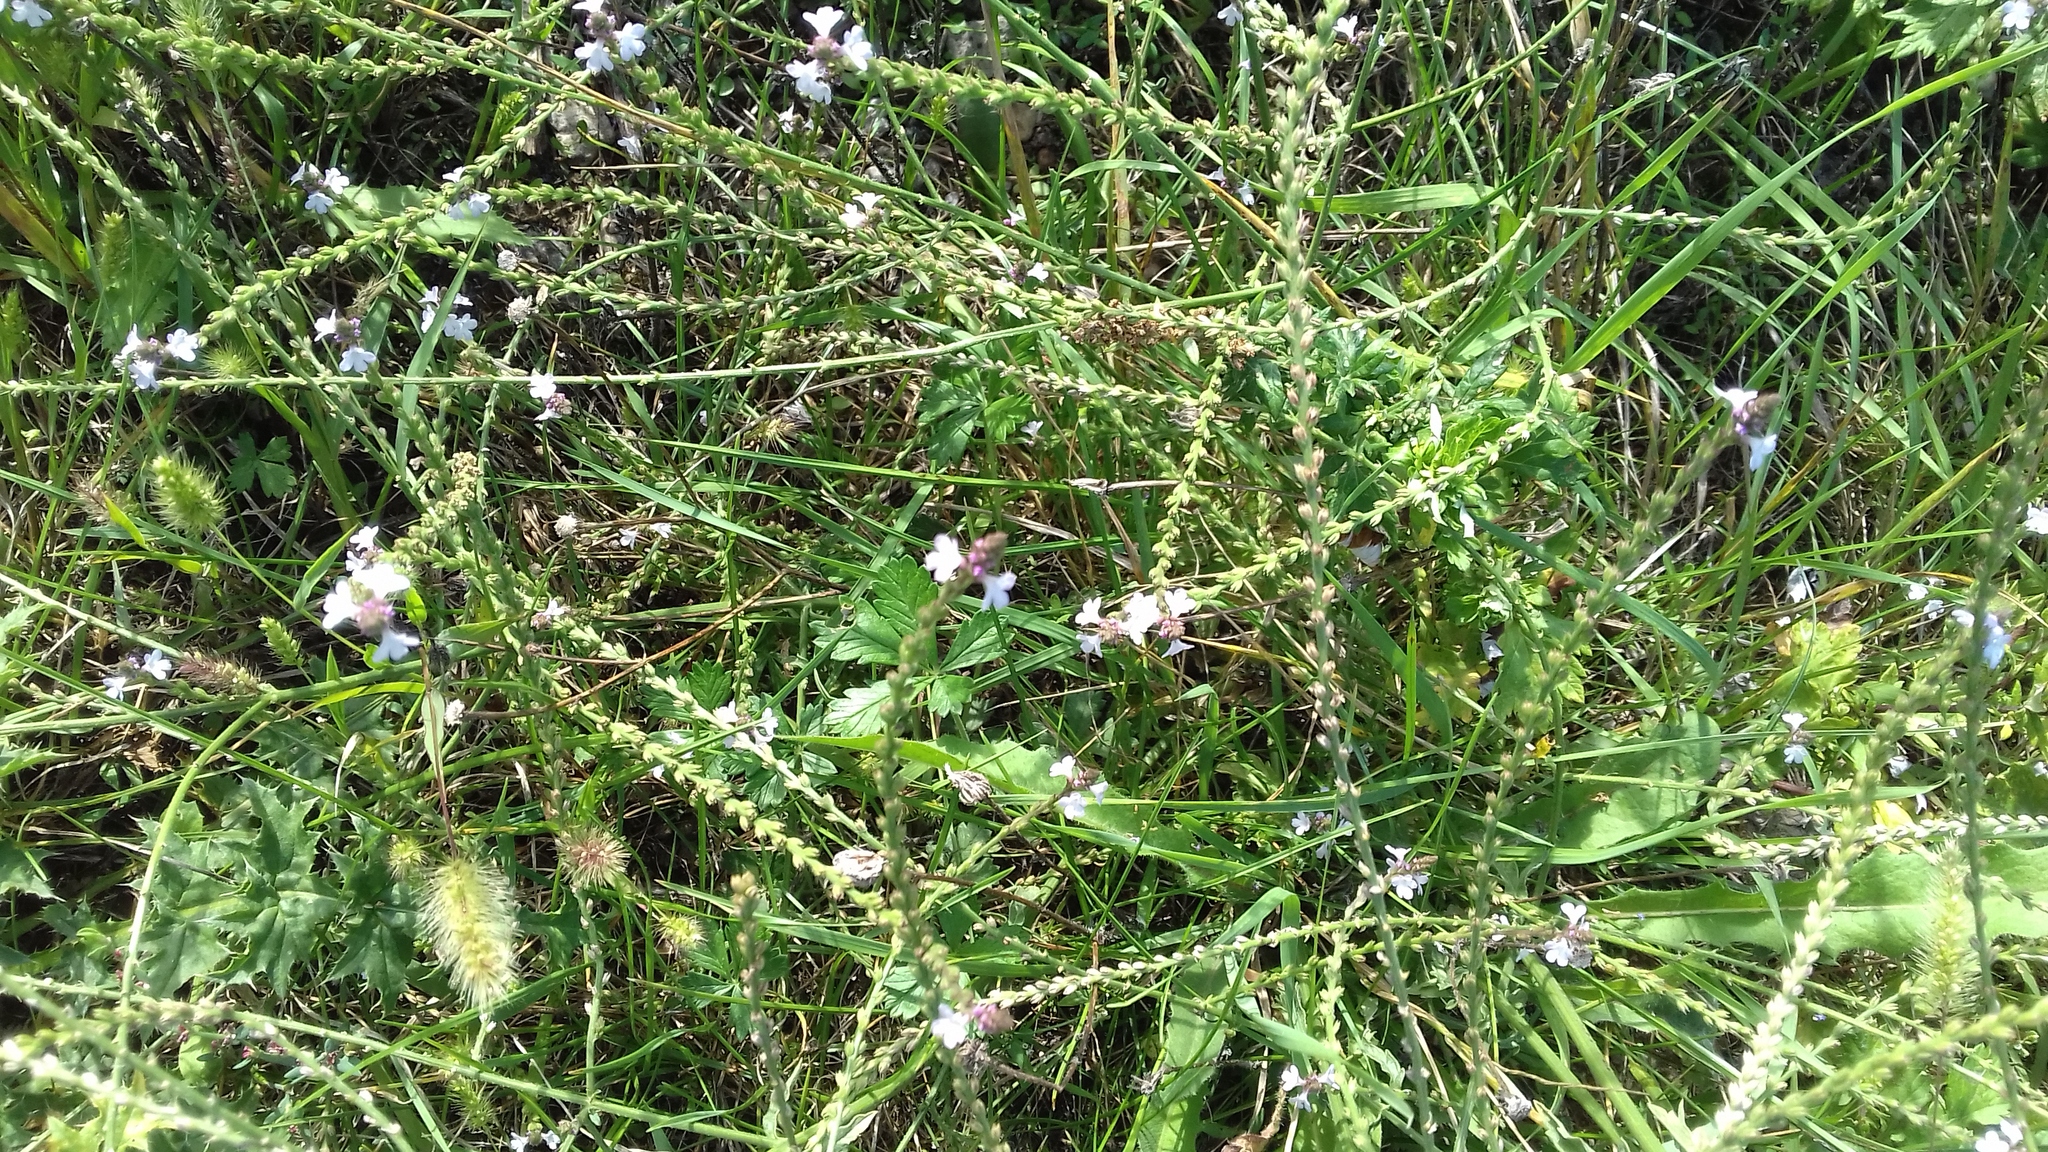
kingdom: Plantae
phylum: Tracheophyta
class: Magnoliopsida
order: Lamiales
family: Verbenaceae
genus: Verbena
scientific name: Verbena officinalis
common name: Vervain
